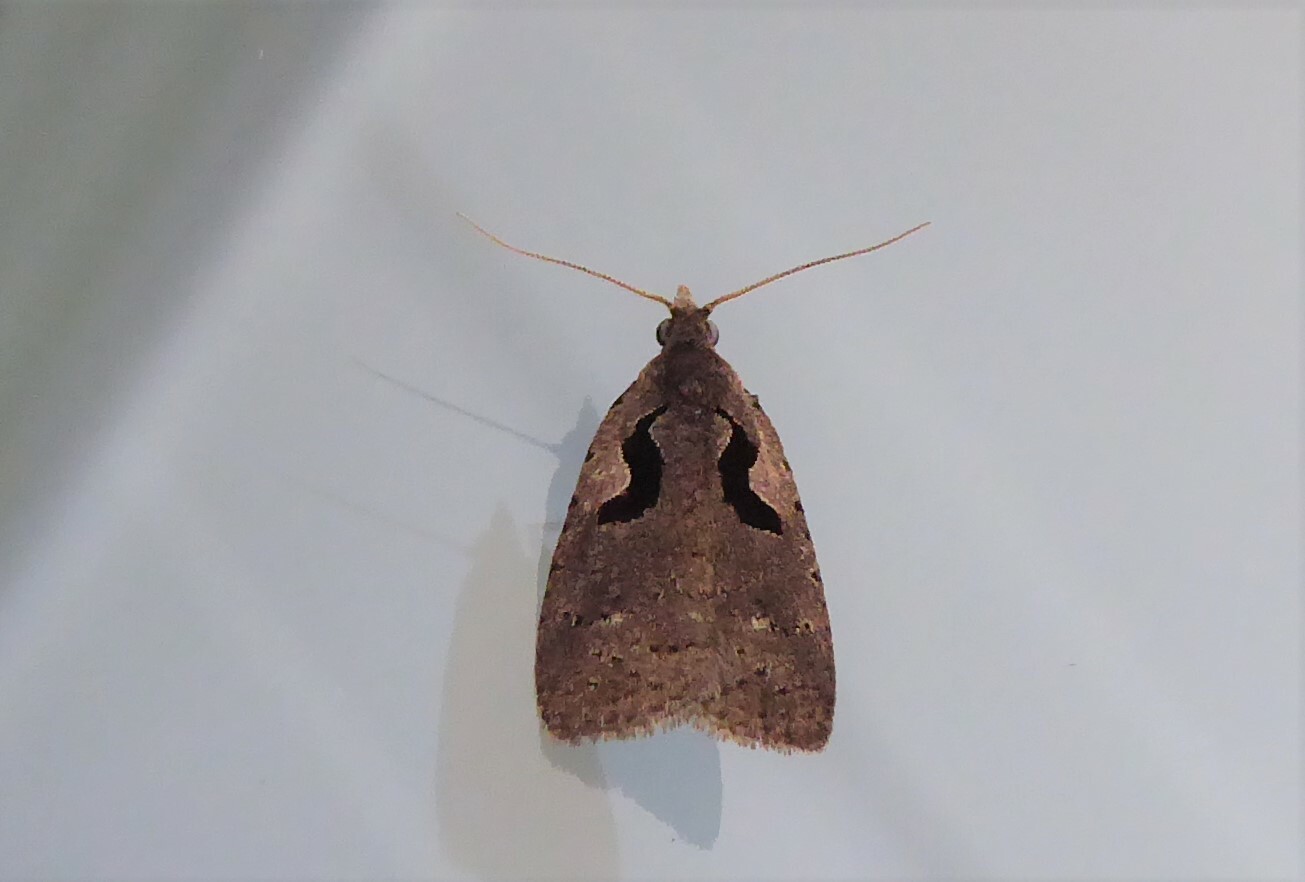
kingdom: Animalia
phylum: Arthropoda
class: Insecta
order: Lepidoptera
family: Tortricidae
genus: Cnephasia
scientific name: Cnephasia jactatana
